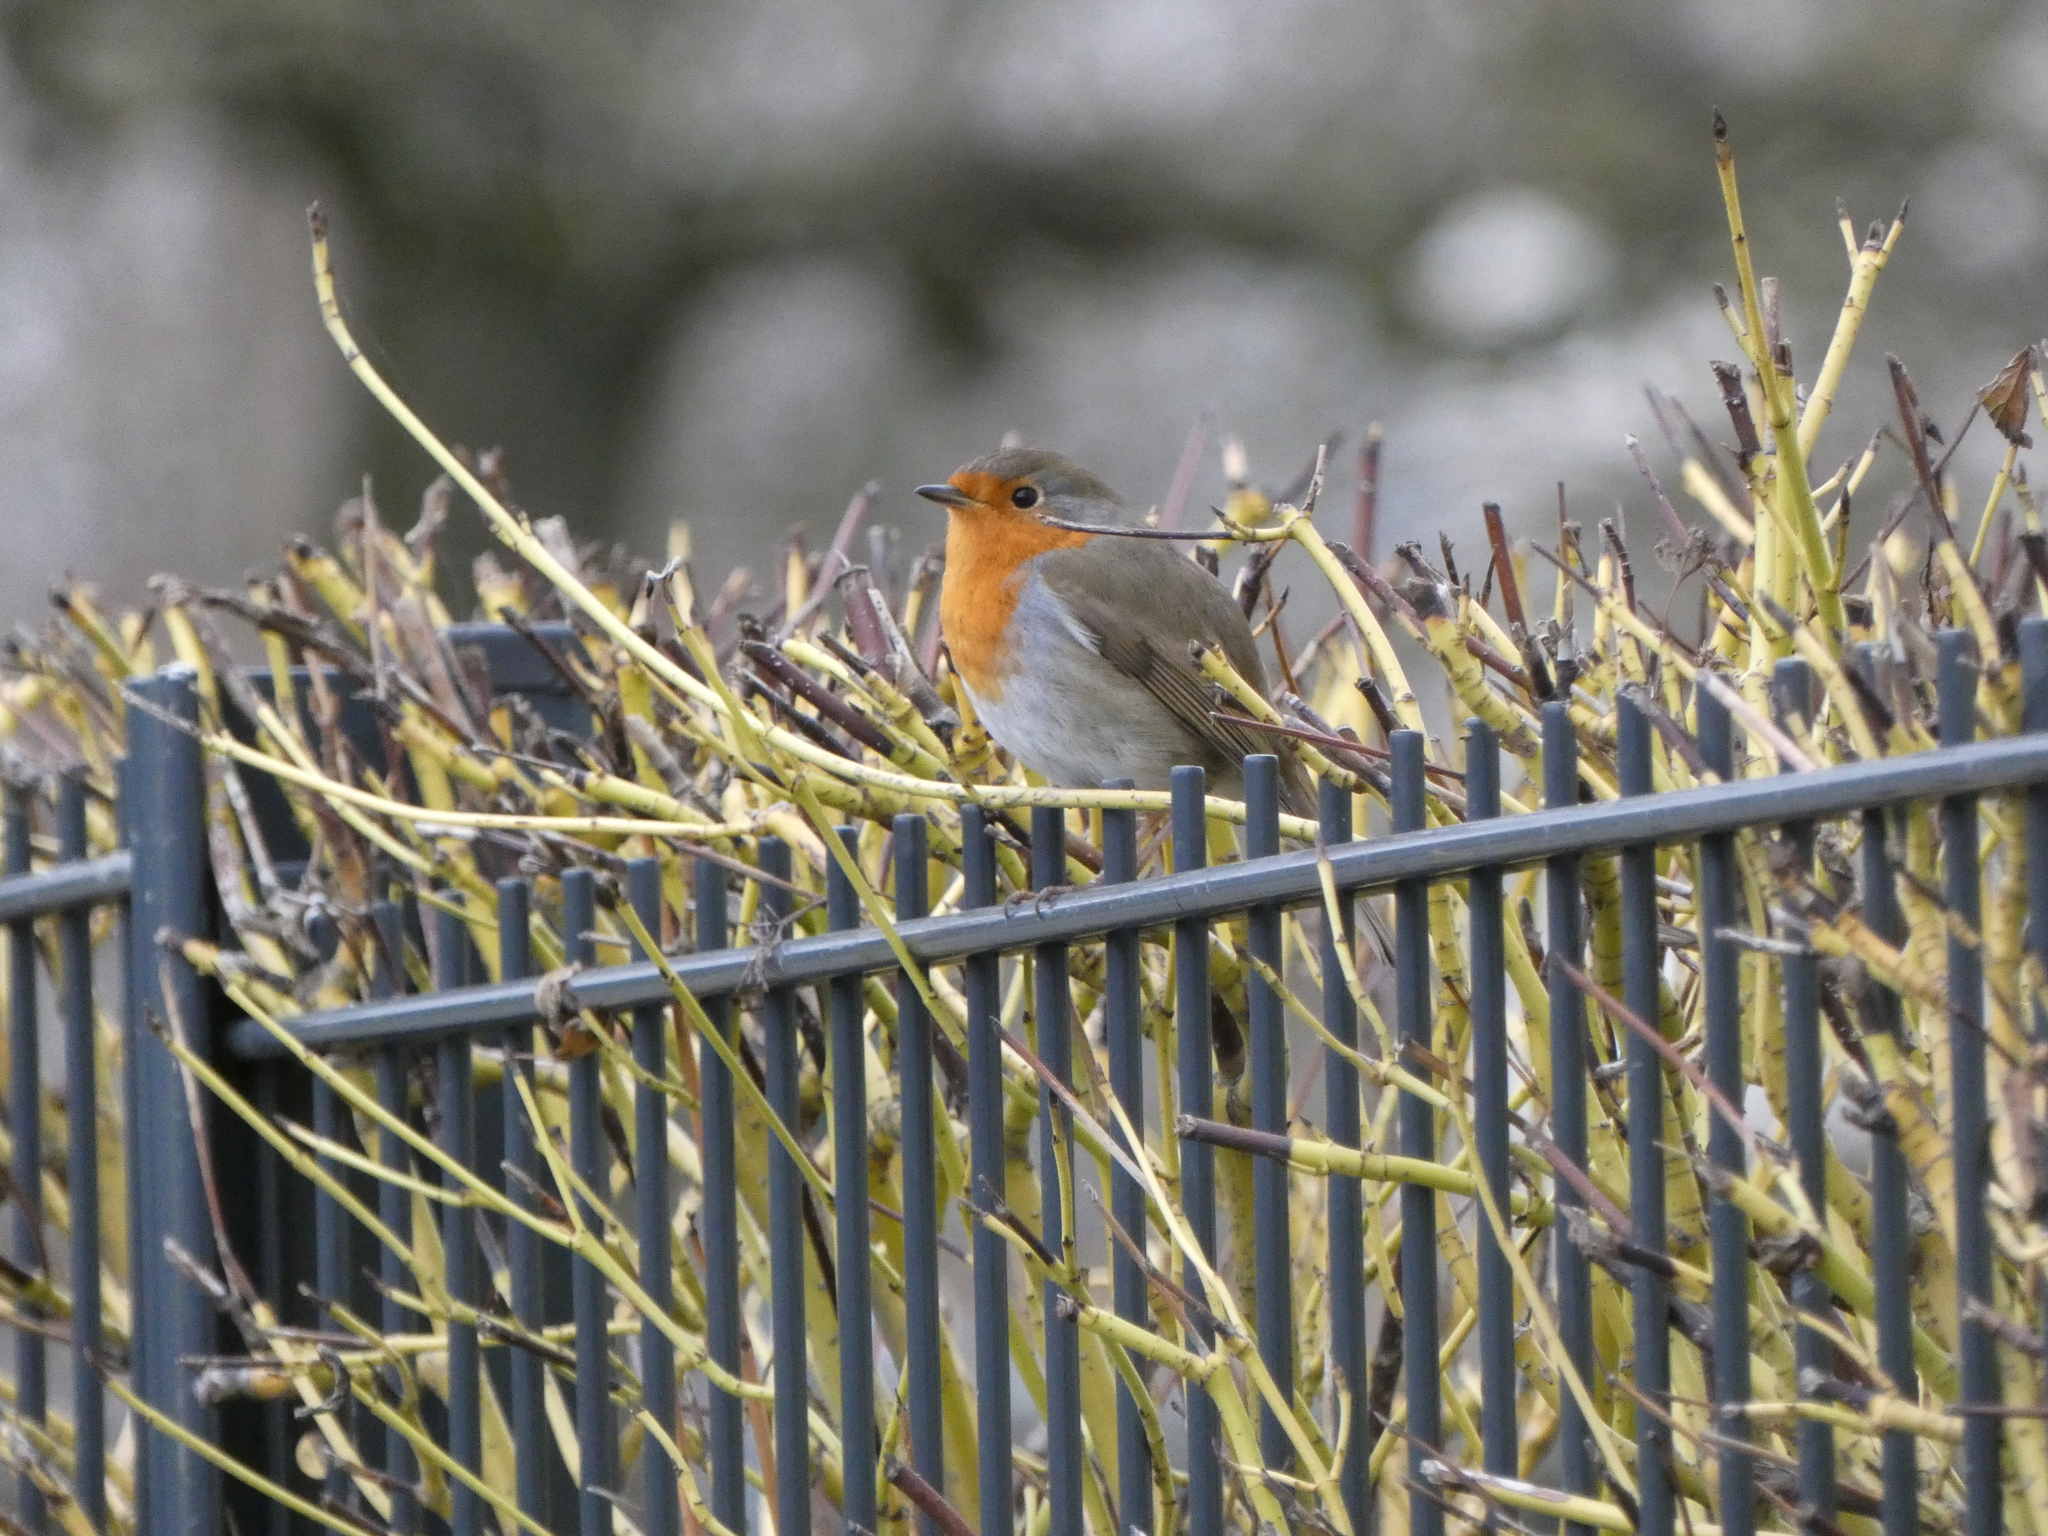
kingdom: Animalia
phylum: Chordata
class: Aves
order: Passeriformes
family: Muscicapidae
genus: Erithacus
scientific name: Erithacus rubecula
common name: European robin
